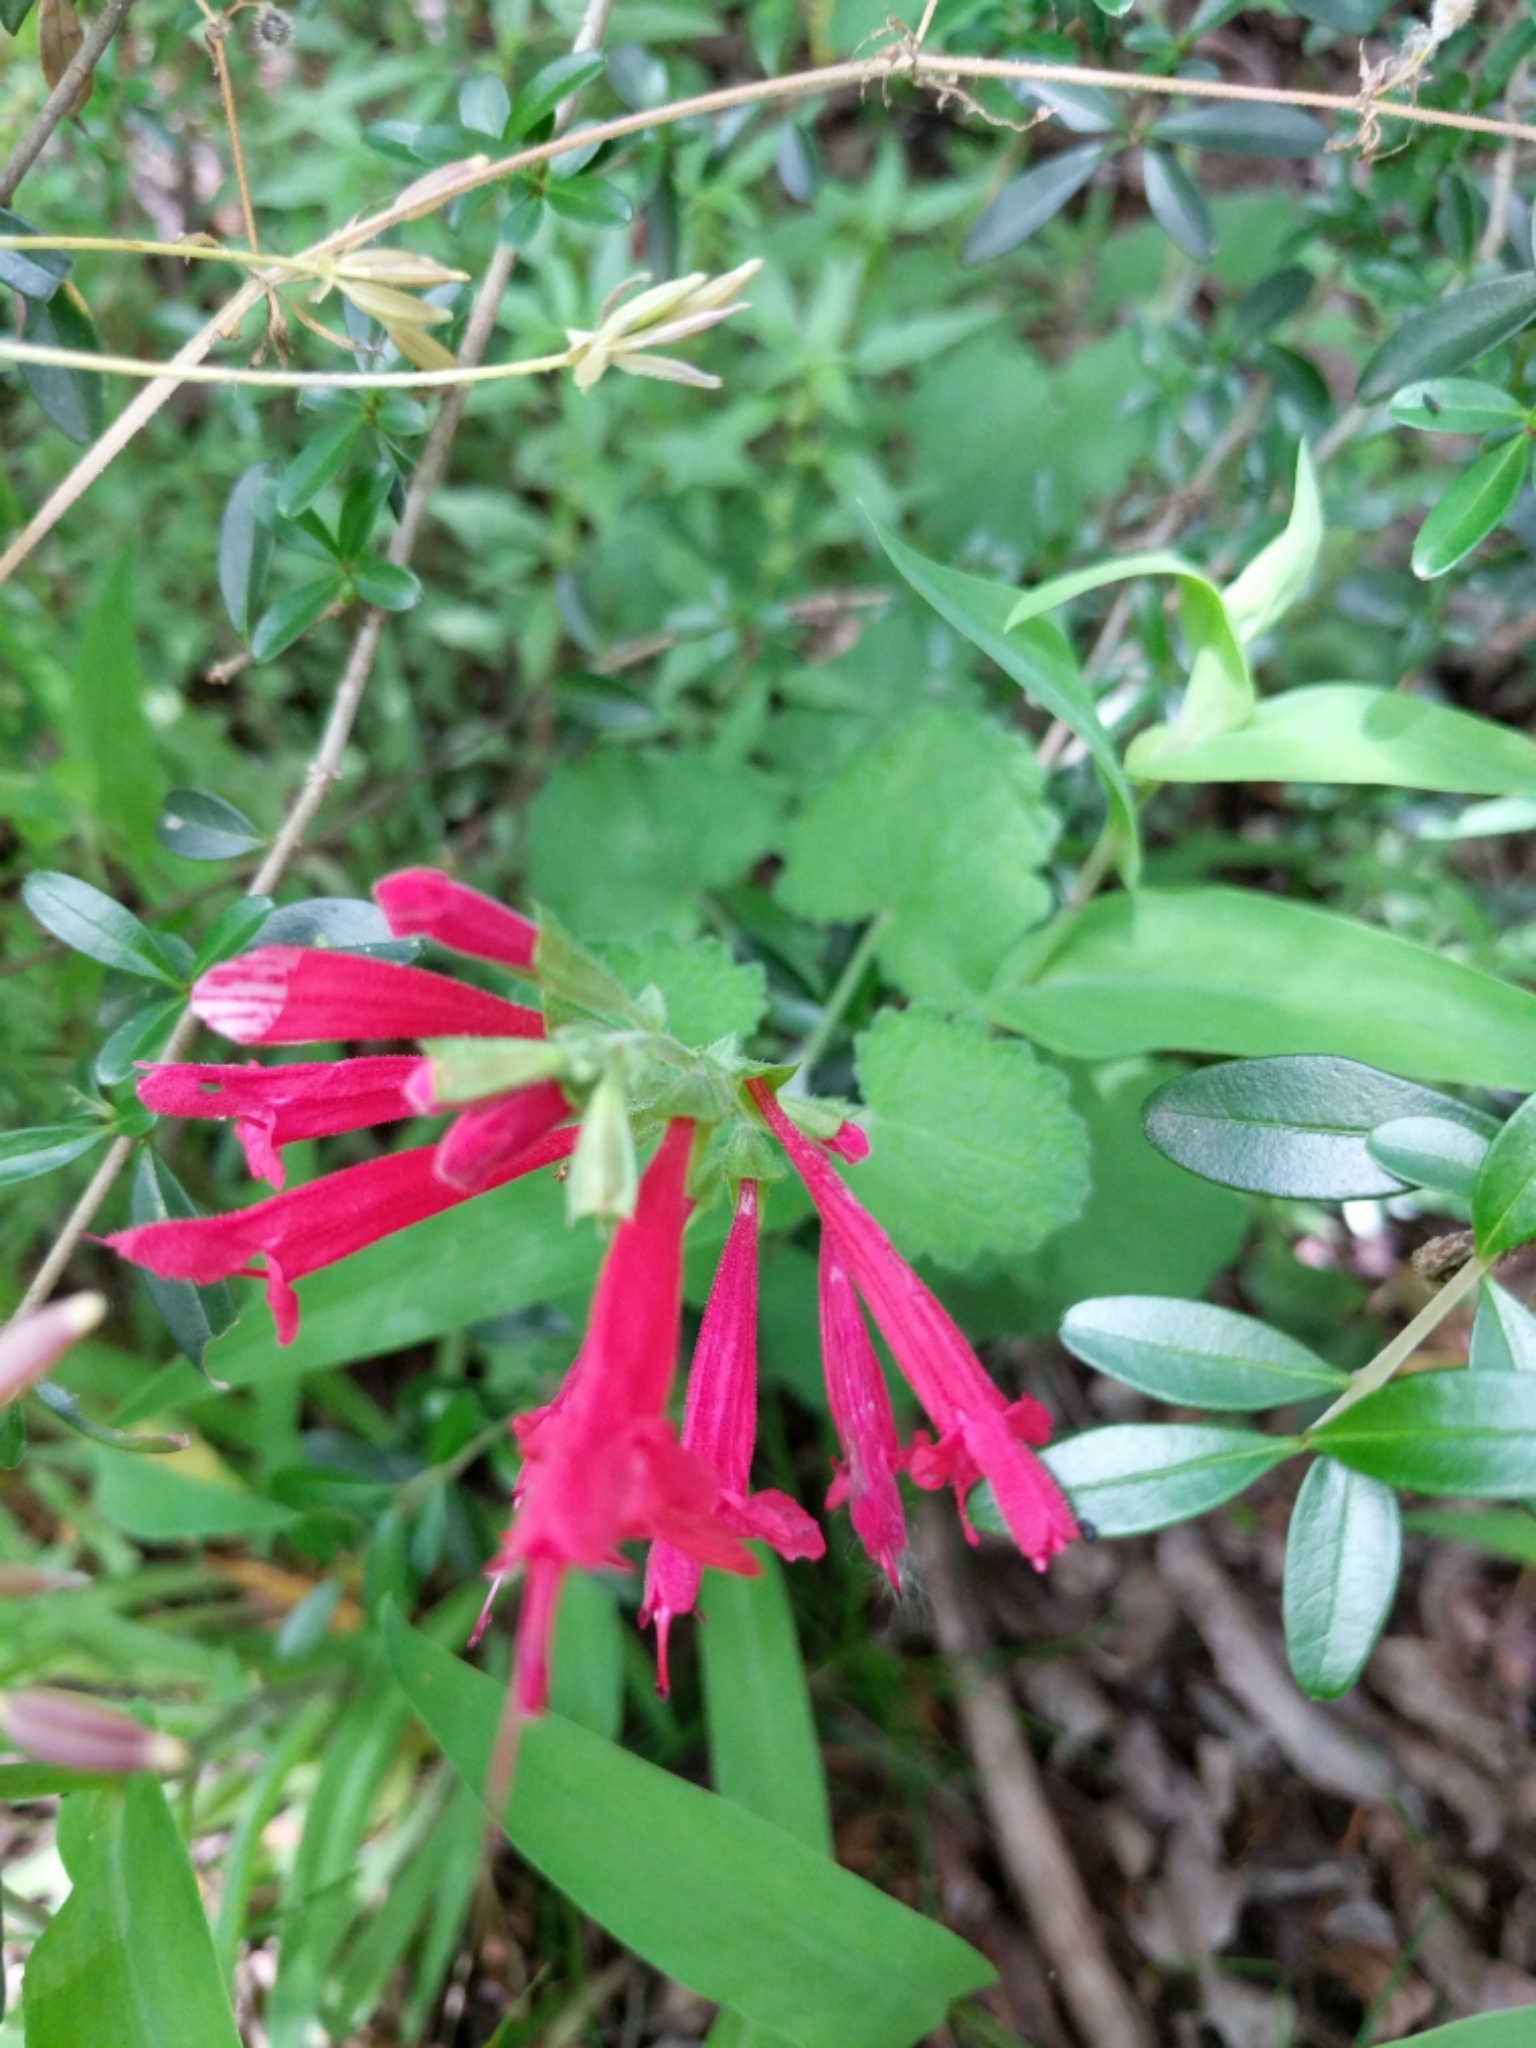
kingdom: Plantae
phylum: Tracheophyta
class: Magnoliopsida
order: Lamiales
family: Lamiaceae
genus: Salvia
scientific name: Salvia roemeriana
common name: Cedar sage
